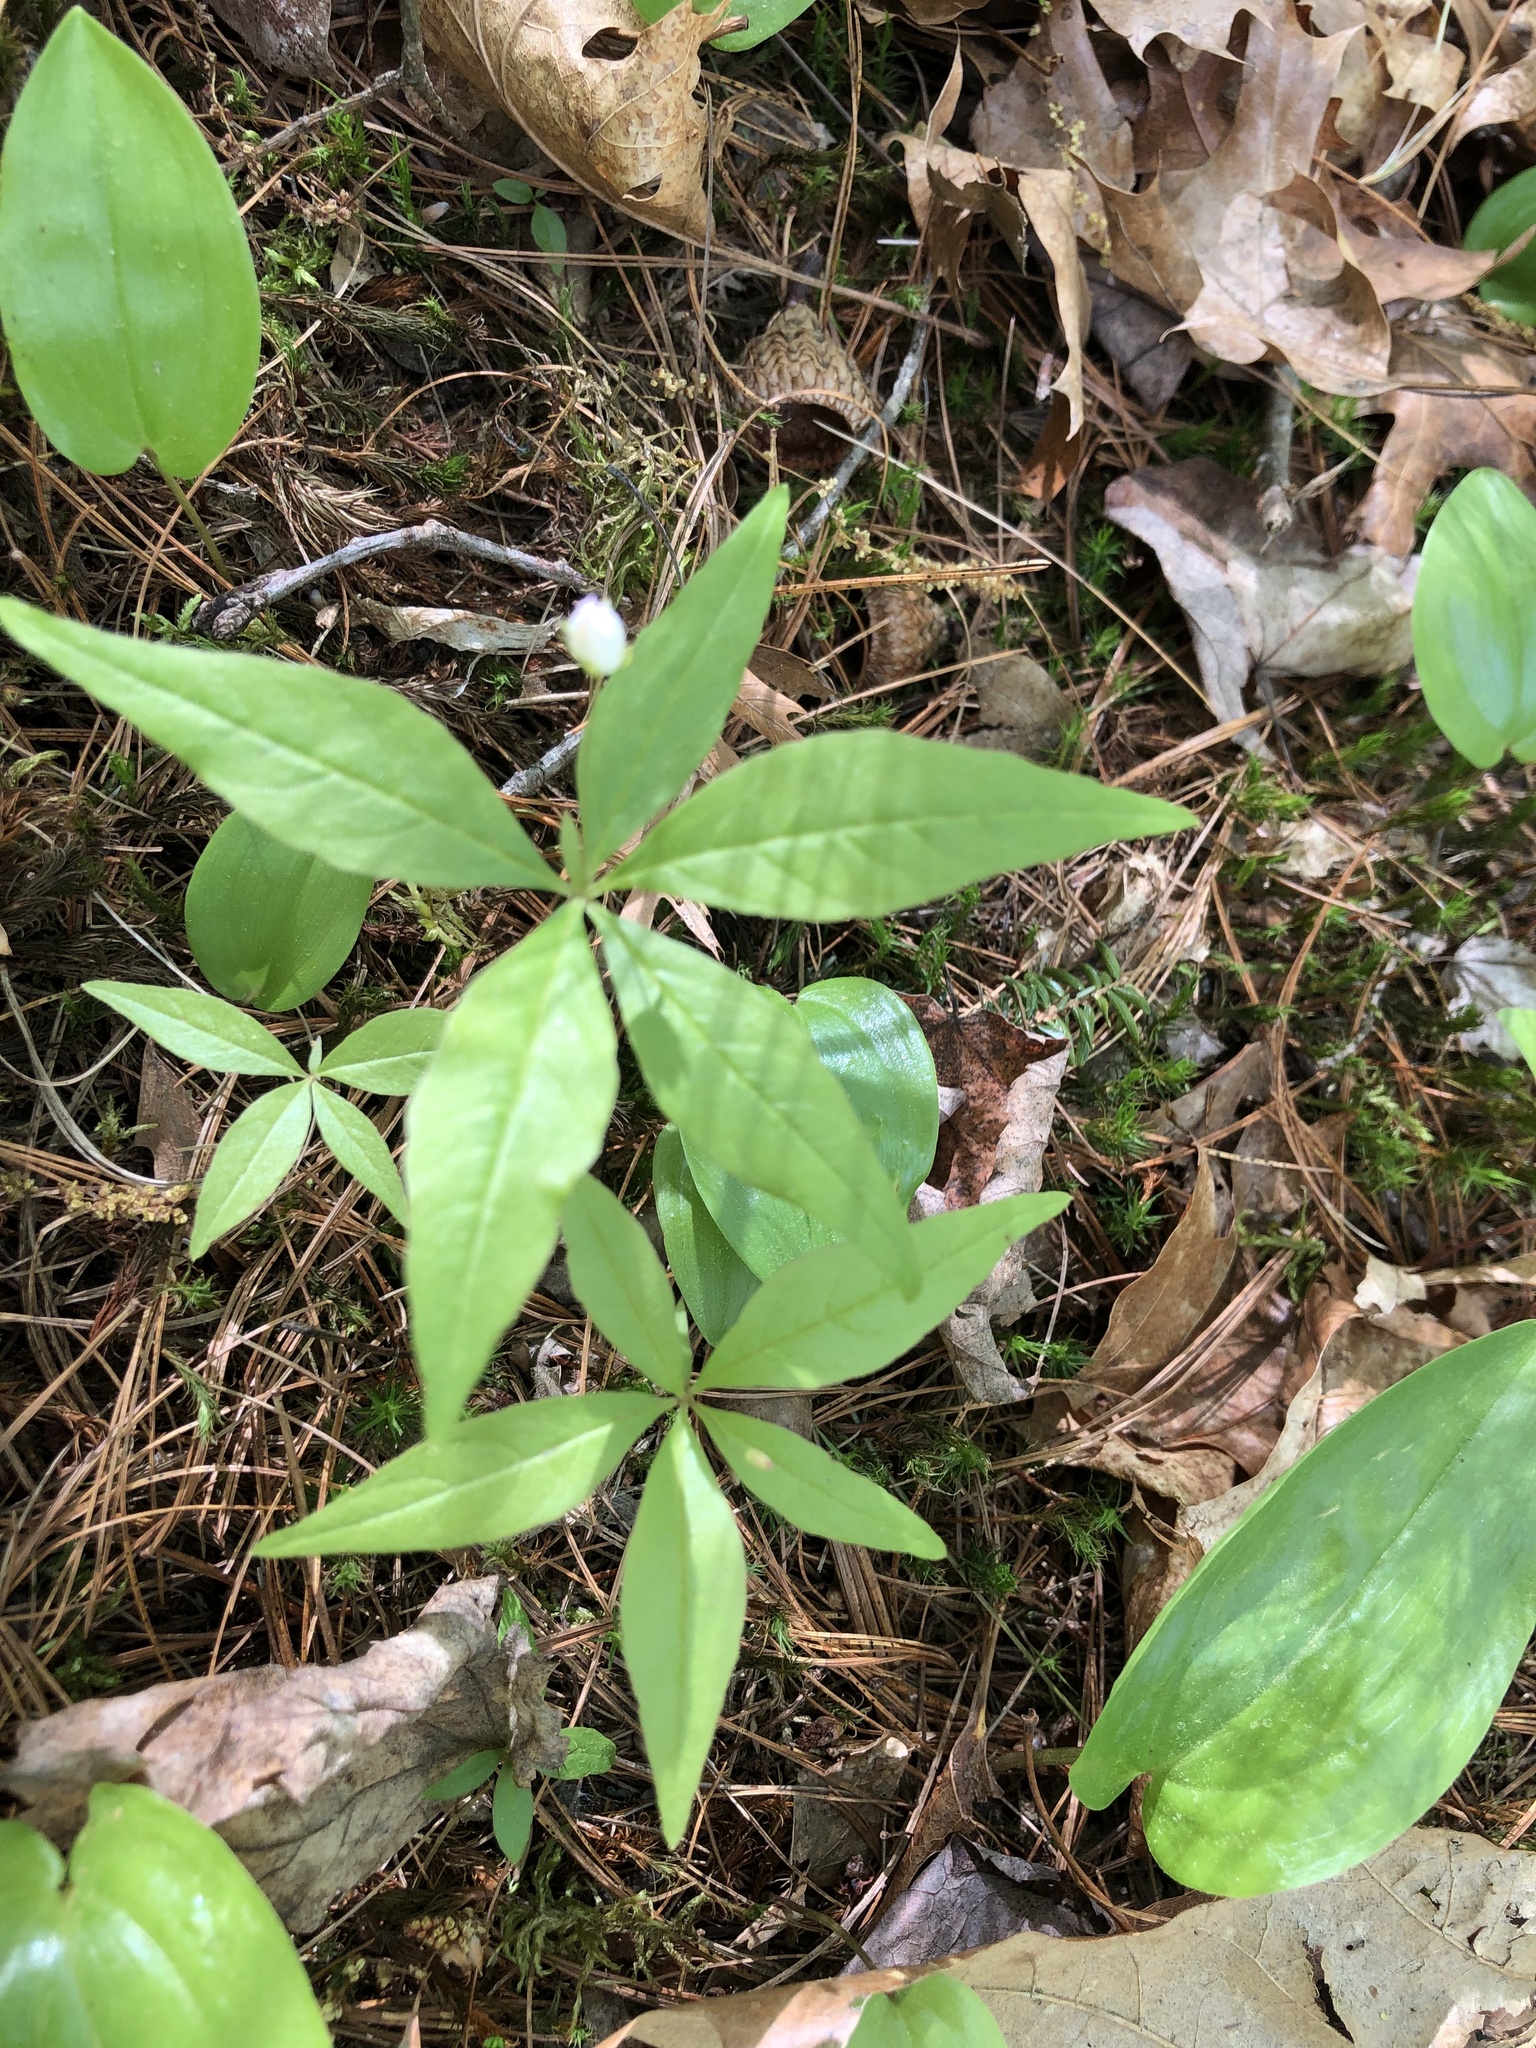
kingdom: Plantae
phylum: Tracheophyta
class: Magnoliopsida
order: Ericales
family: Primulaceae
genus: Lysimachia
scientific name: Lysimachia borealis
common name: American starflower
